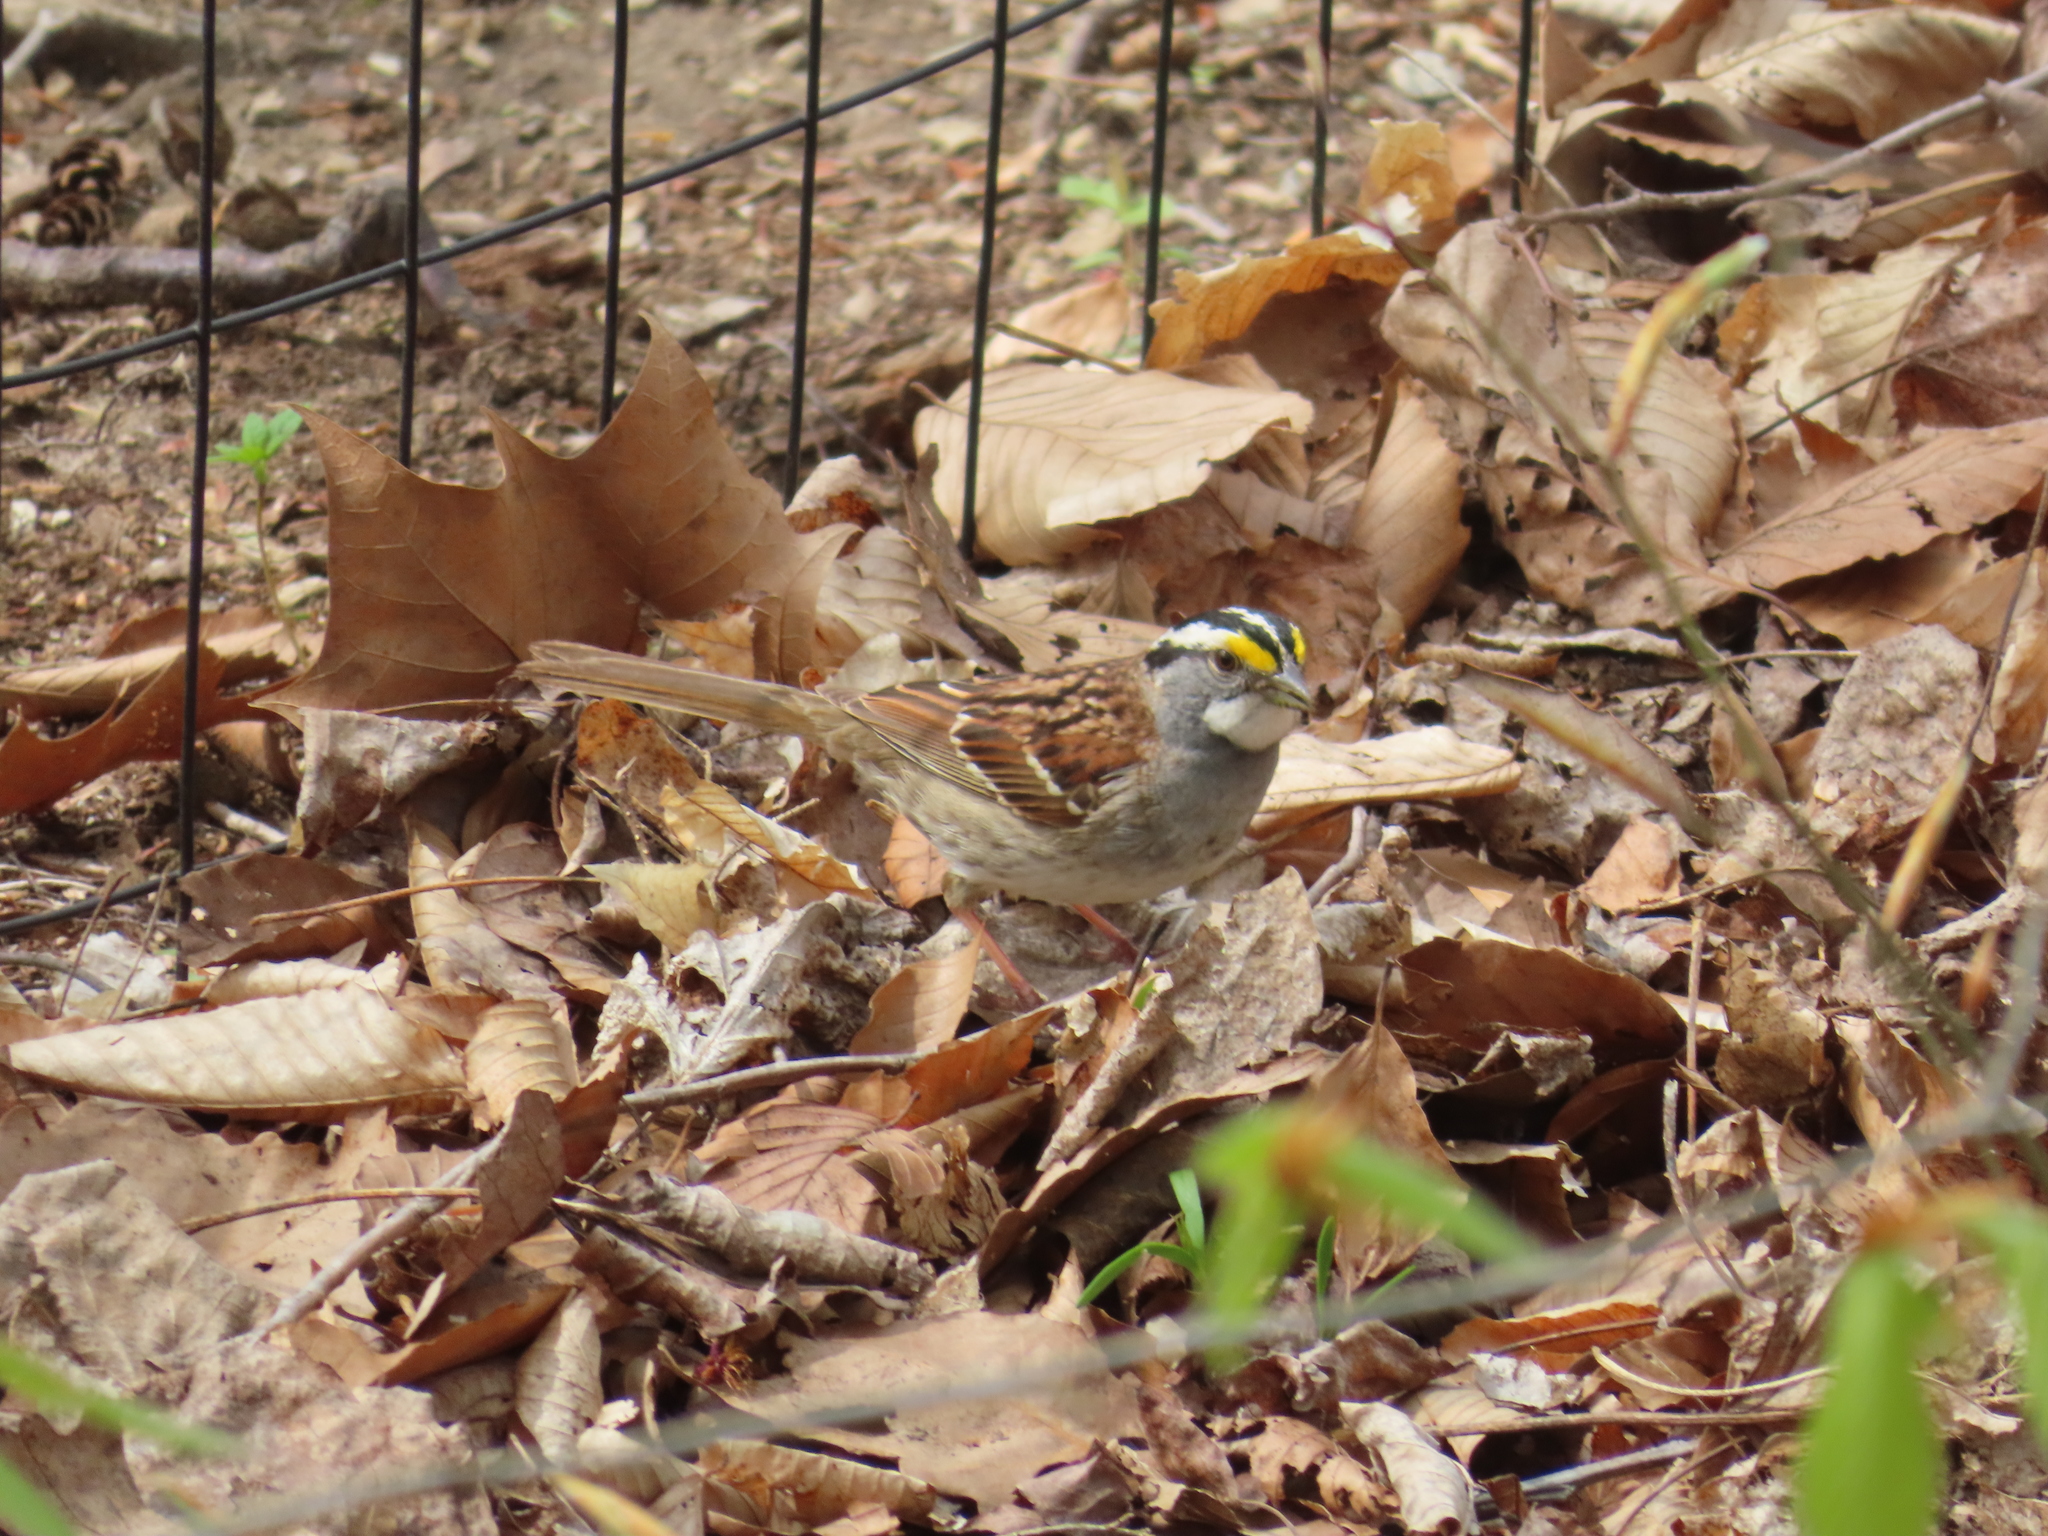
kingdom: Animalia
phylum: Chordata
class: Aves
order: Passeriformes
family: Passerellidae
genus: Zonotrichia
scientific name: Zonotrichia albicollis
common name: White-throated sparrow
